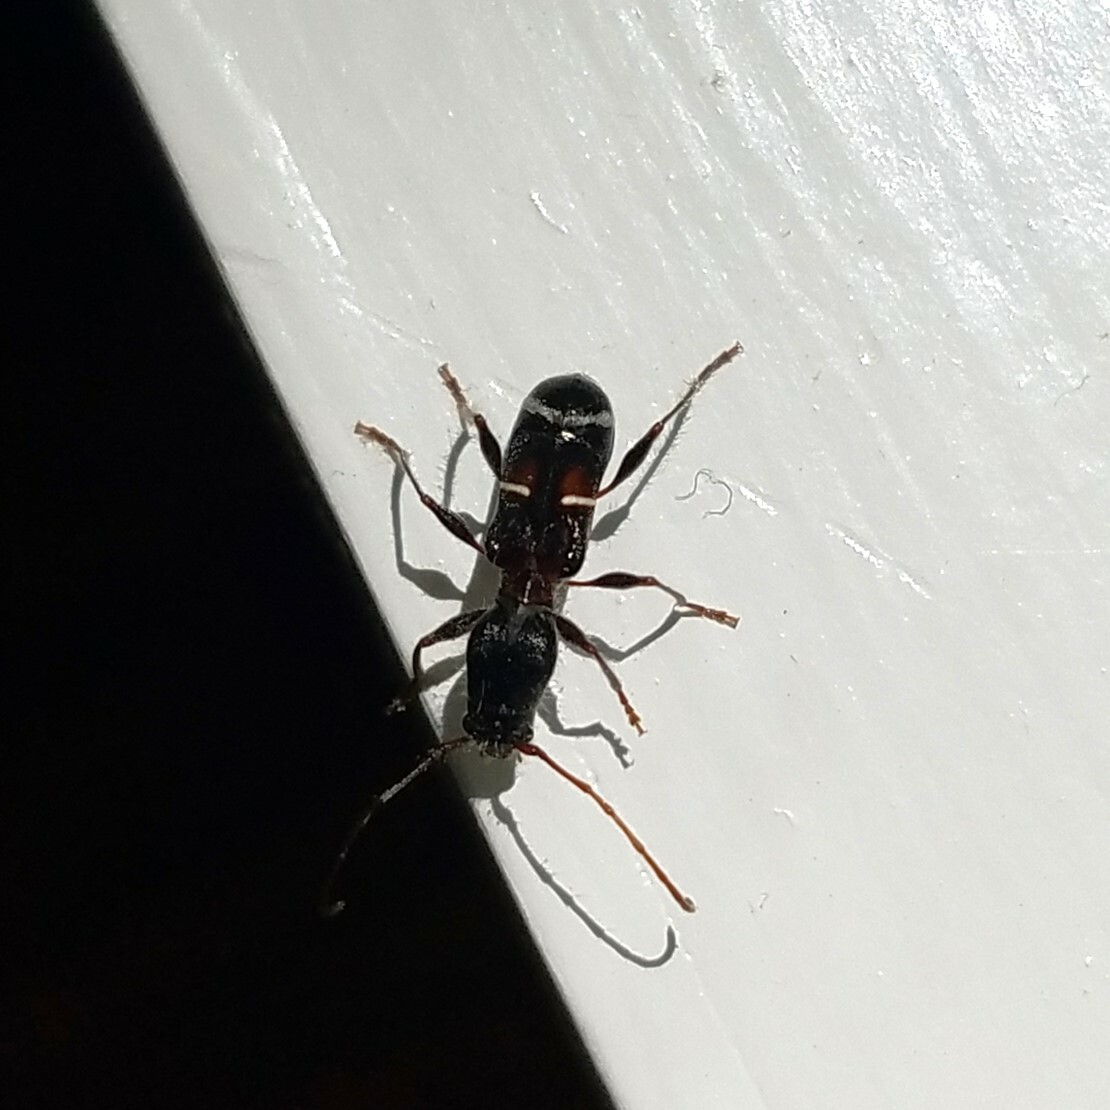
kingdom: Animalia
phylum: Arthropoda
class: Insecta
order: Coleoptera
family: Cerambycidae
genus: Euderces
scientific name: Euderces pini
